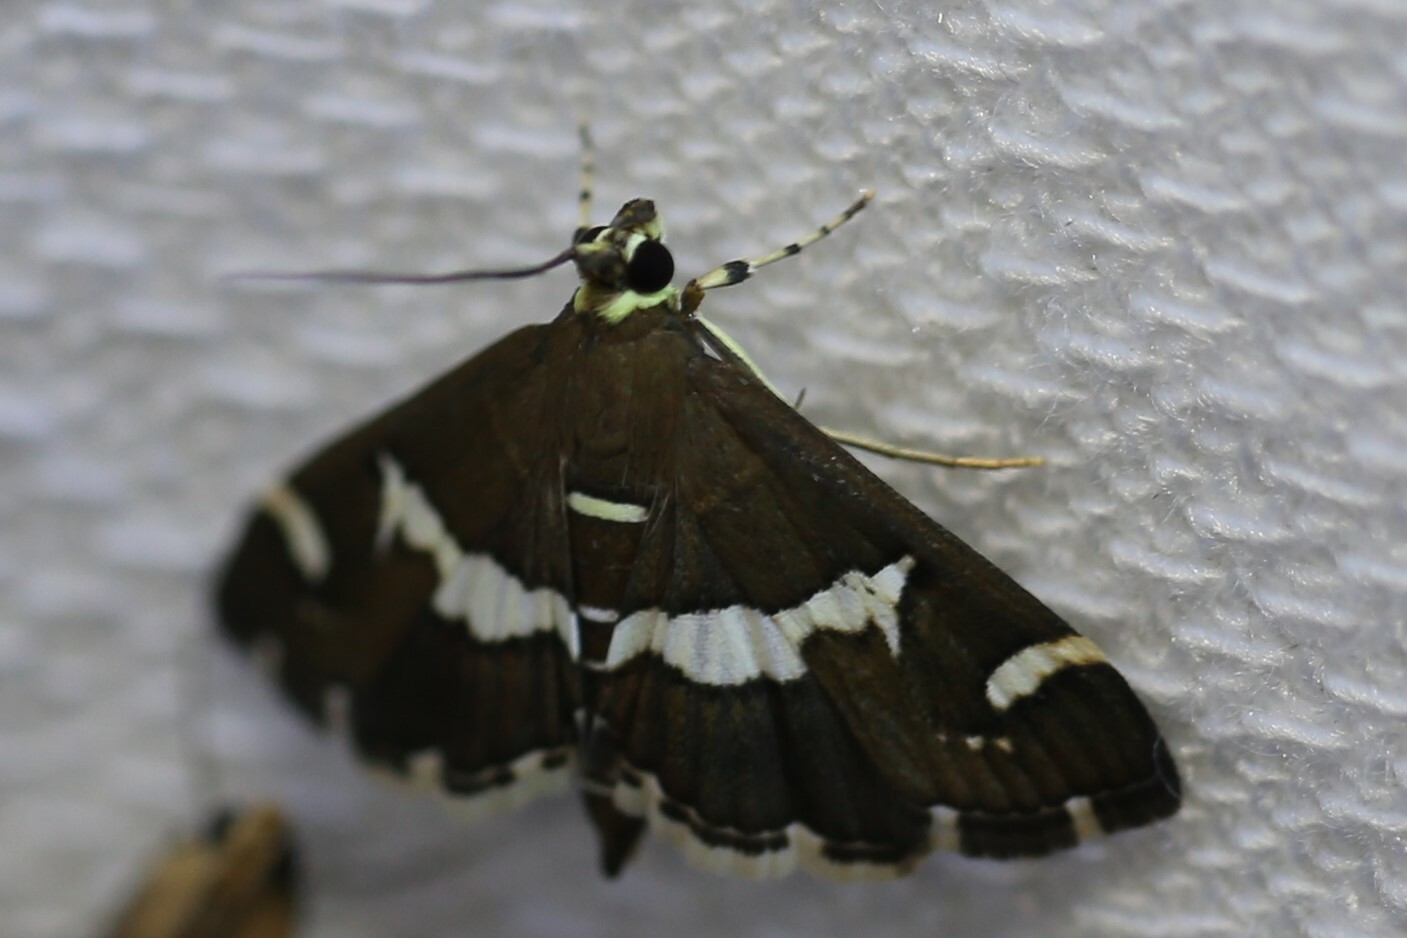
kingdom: Animalia
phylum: Arthropoda
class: Insecta
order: Lepidoptera
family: Crambidae
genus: Spoladea
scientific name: Spoladea recurvalis
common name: Beet webworm moth
